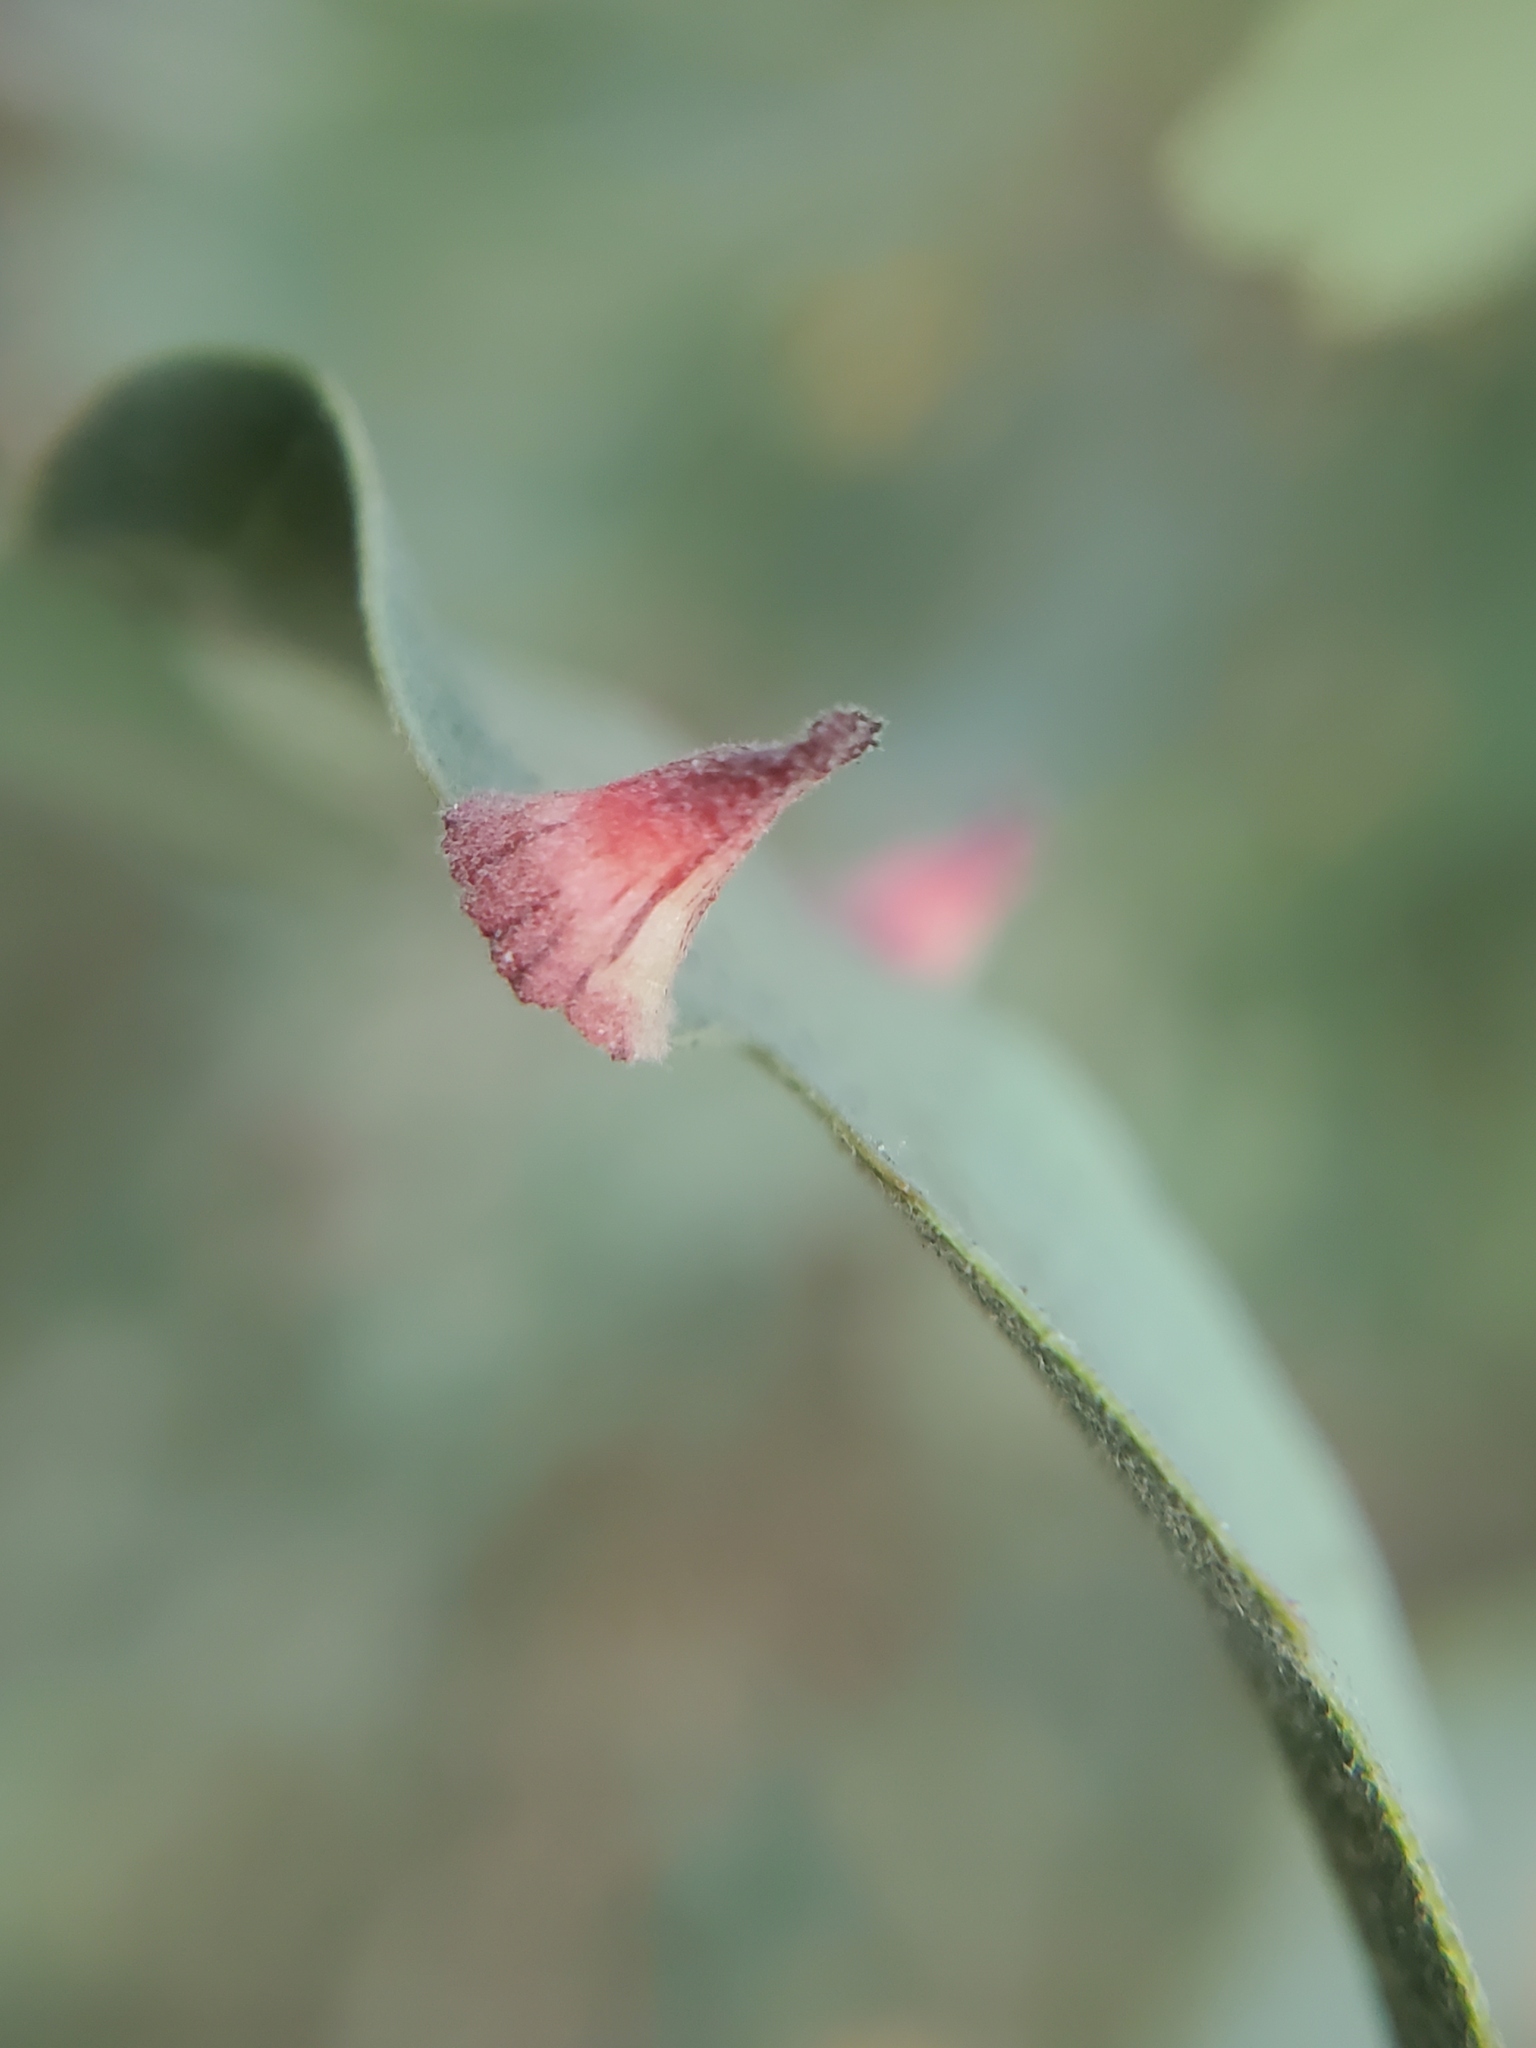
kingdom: Animalia
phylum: Arthropoda
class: Insecta
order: Hymenoptera
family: Cynipidae
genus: Andricus
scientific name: Andricus
